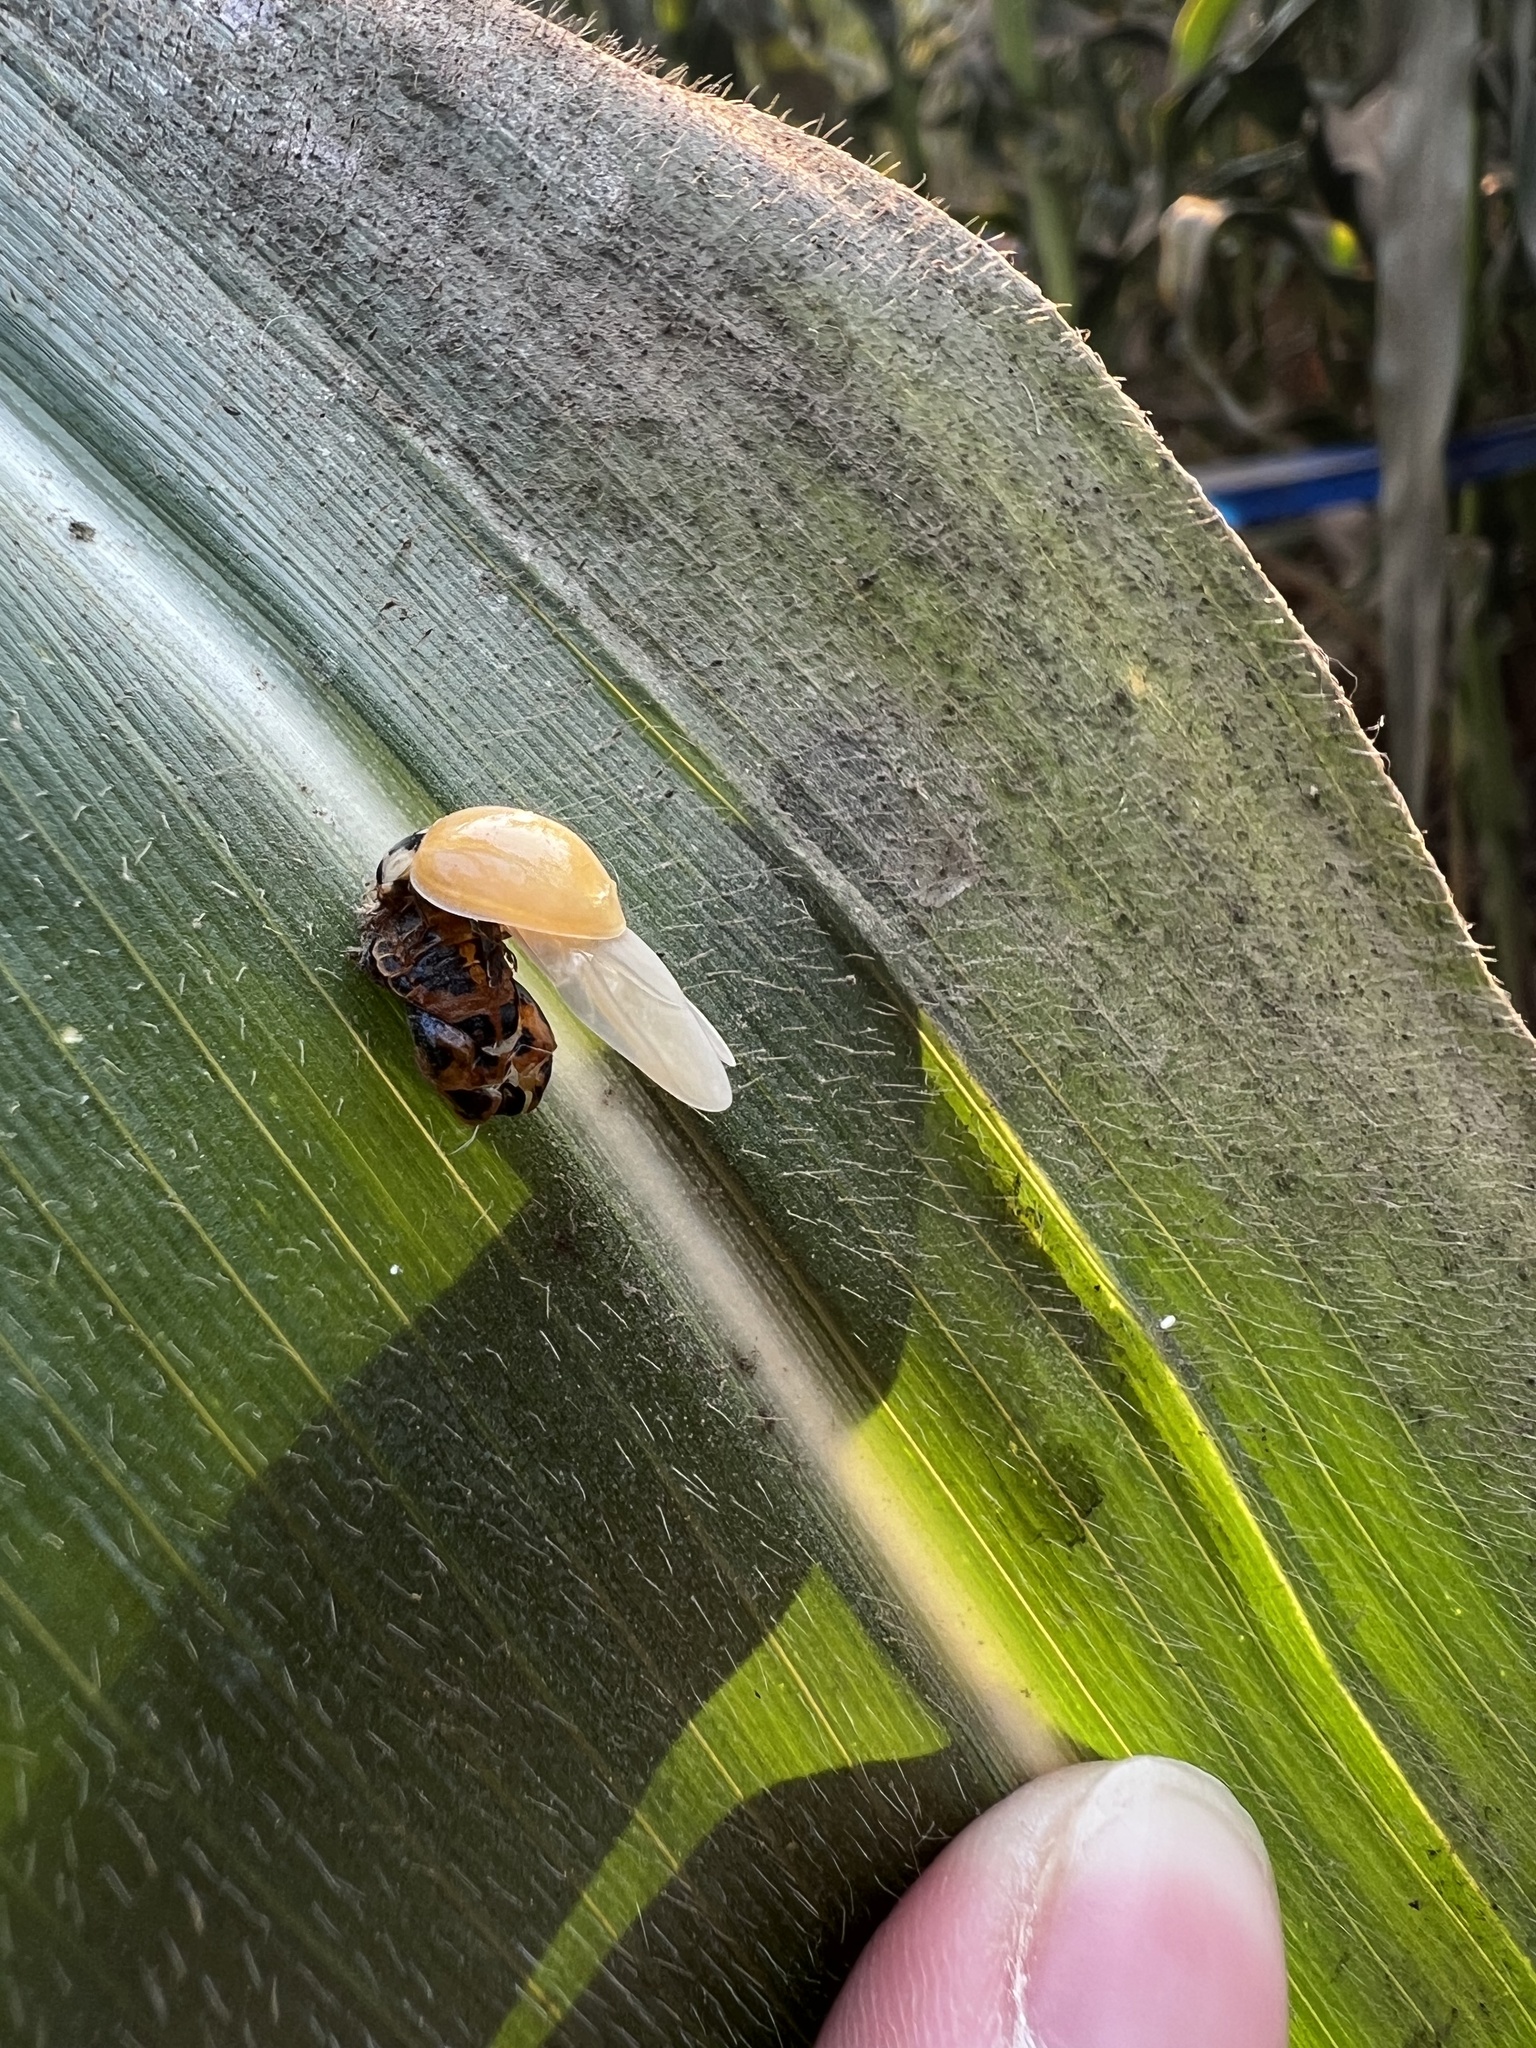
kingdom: Animalia
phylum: Arthropoda
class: Insecta
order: Coleoptera
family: Coccinellidae
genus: Harmonia
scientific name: Harmonia axyridis
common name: Harlequin ladybird
